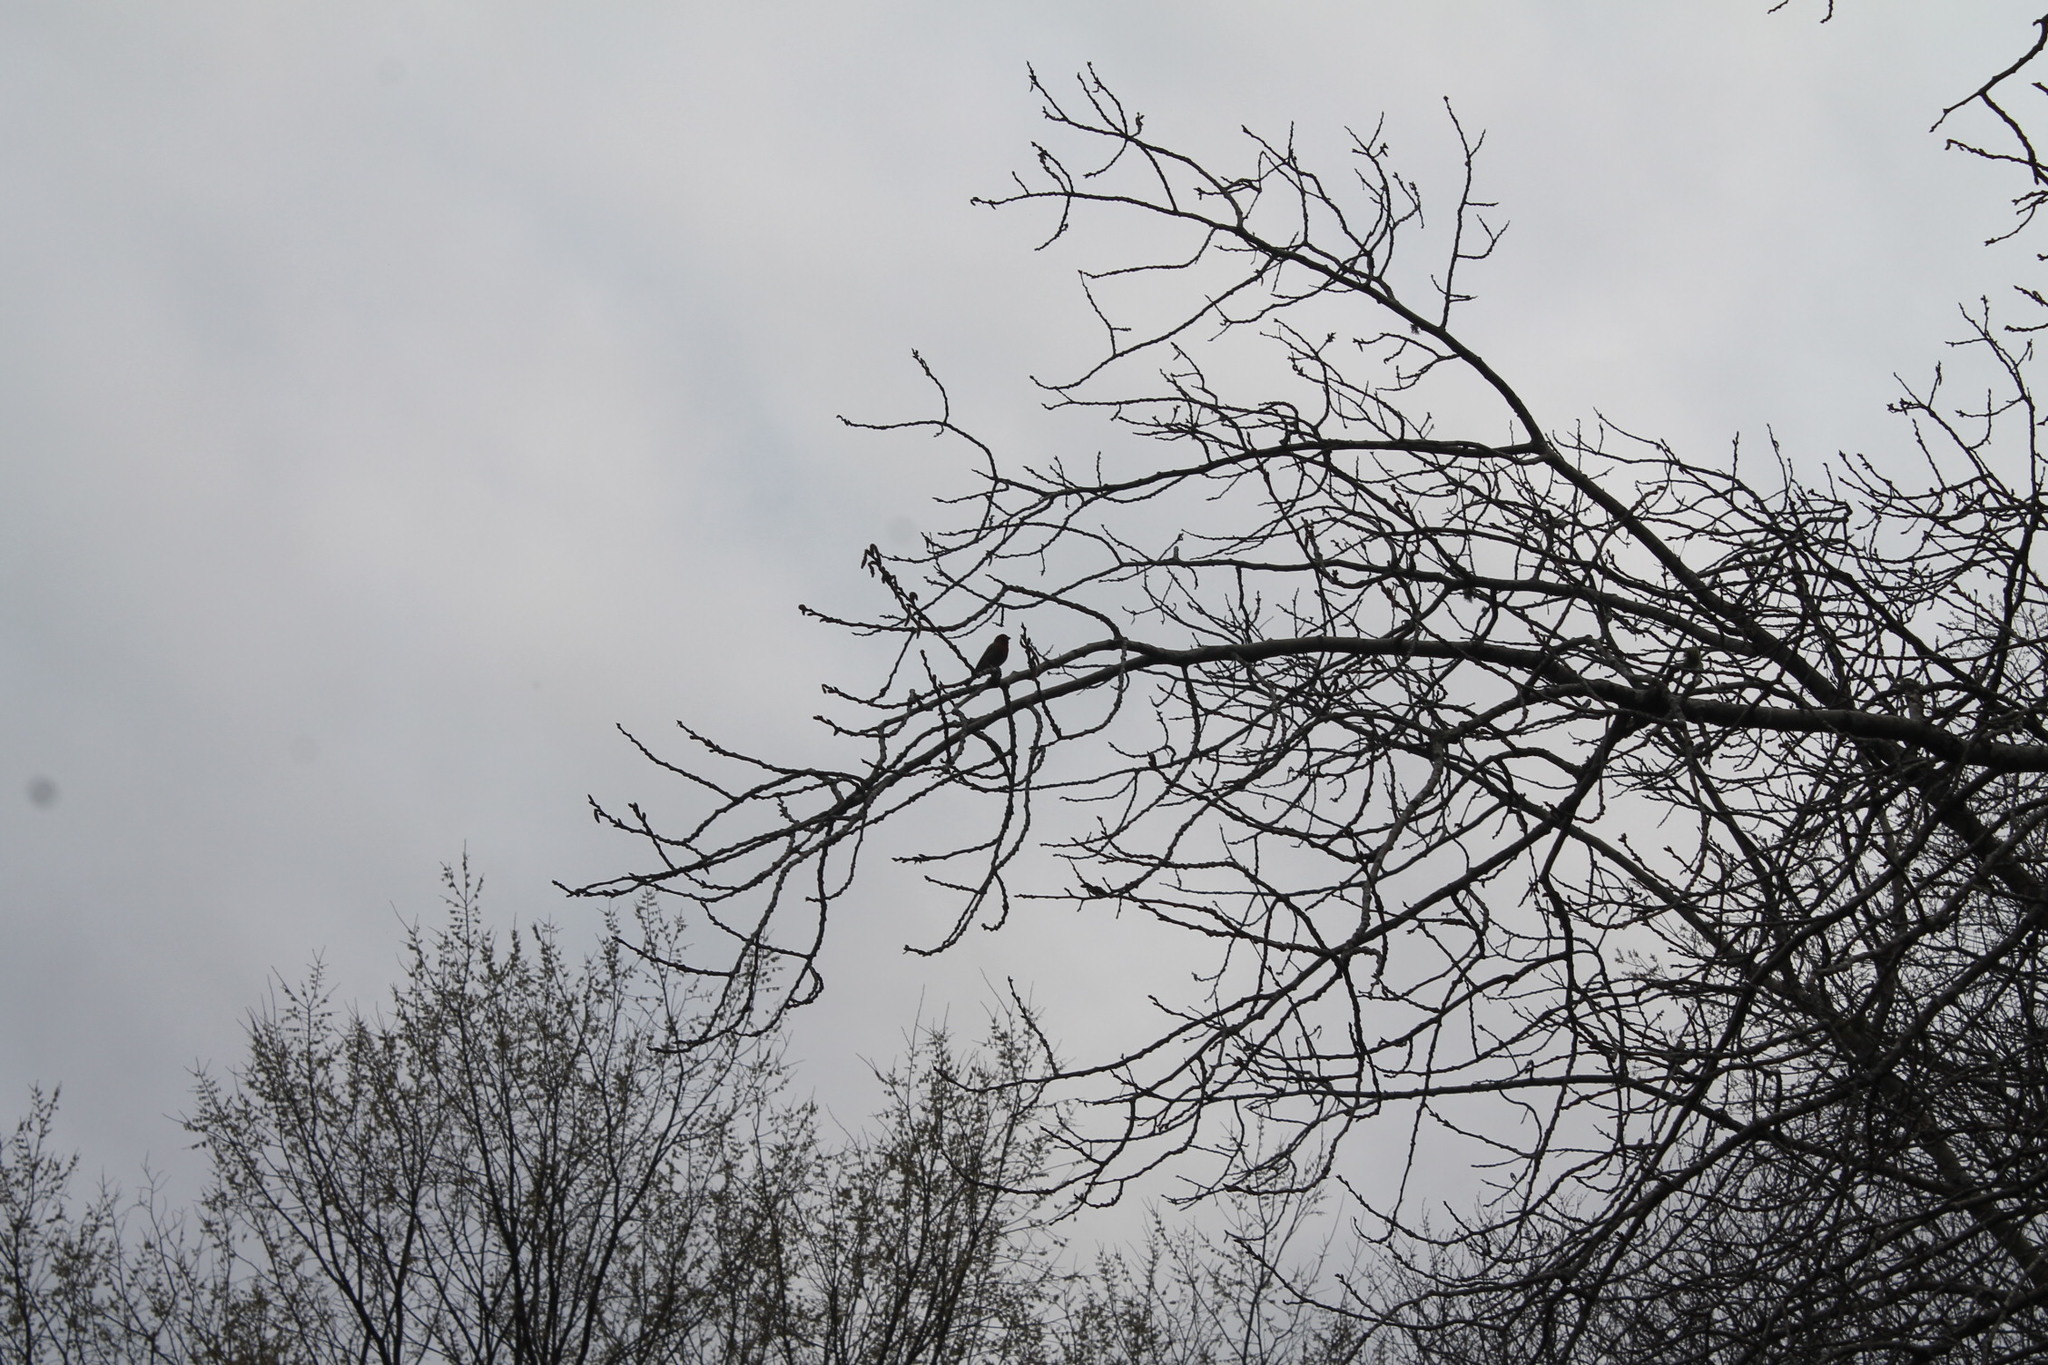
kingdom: Animalia
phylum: Chordata
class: Aves
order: Passeriformes
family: Fringillidae
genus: Haemorhous
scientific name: Haemorhous mexicanus
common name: House finch
